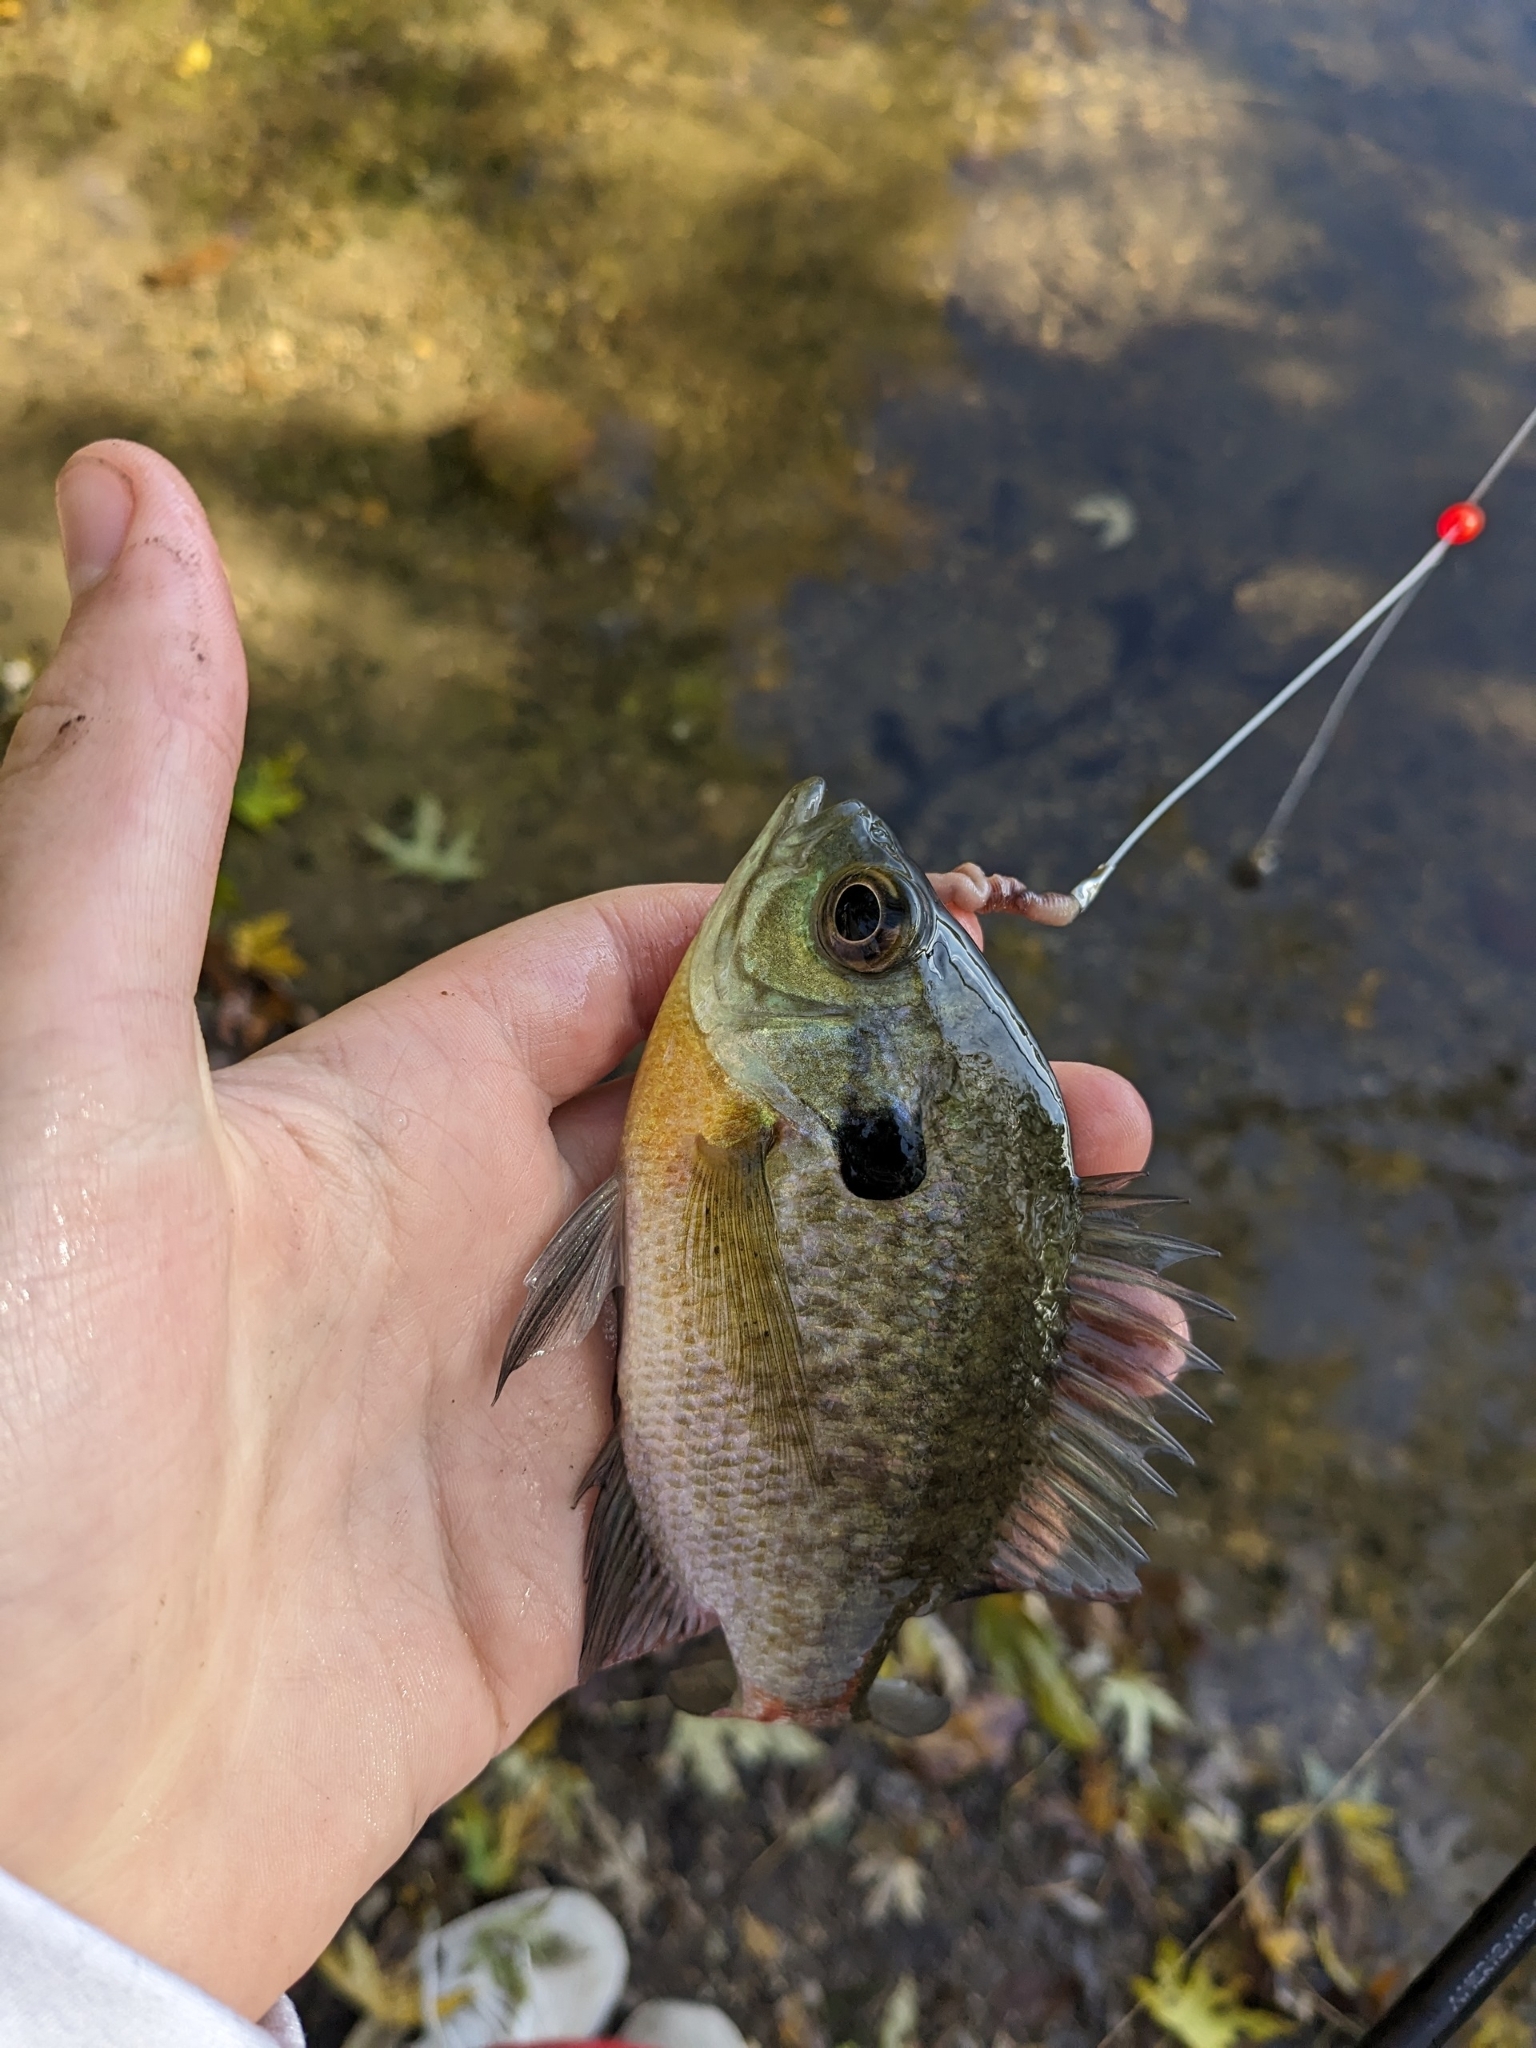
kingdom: Animalia
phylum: Chordata
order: Perciformes
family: Centrarchidae
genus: Lepomis
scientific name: Lepomis macrochirus
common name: Bluegill
